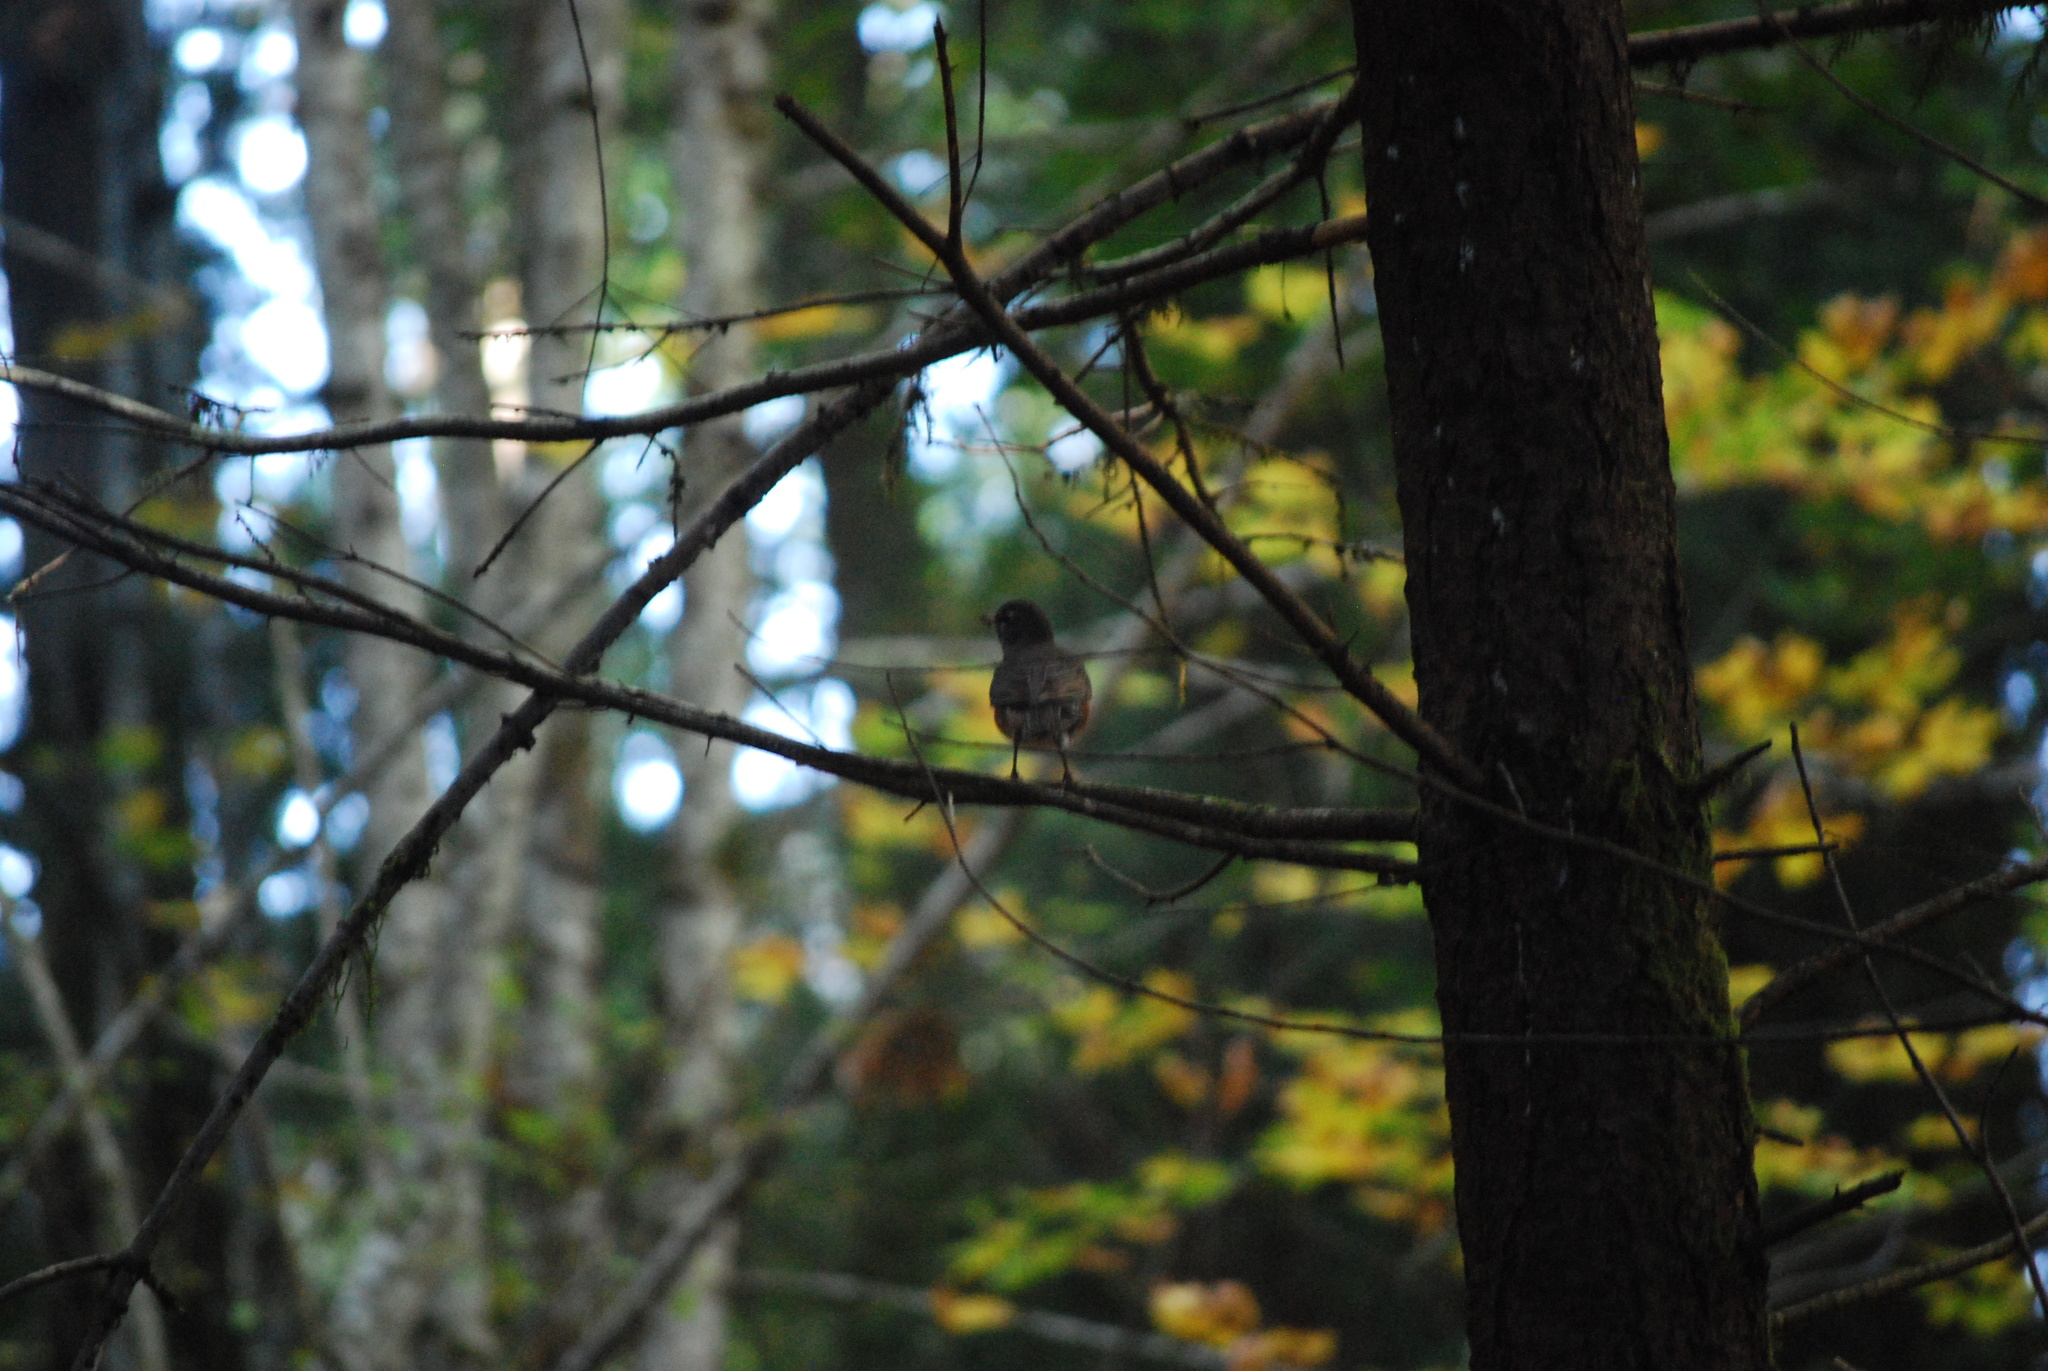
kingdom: Animalia
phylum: Chordata
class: Aves
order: Passeriformes
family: Turdidae
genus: Turdus
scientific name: Turdus migratorius
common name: American robin
